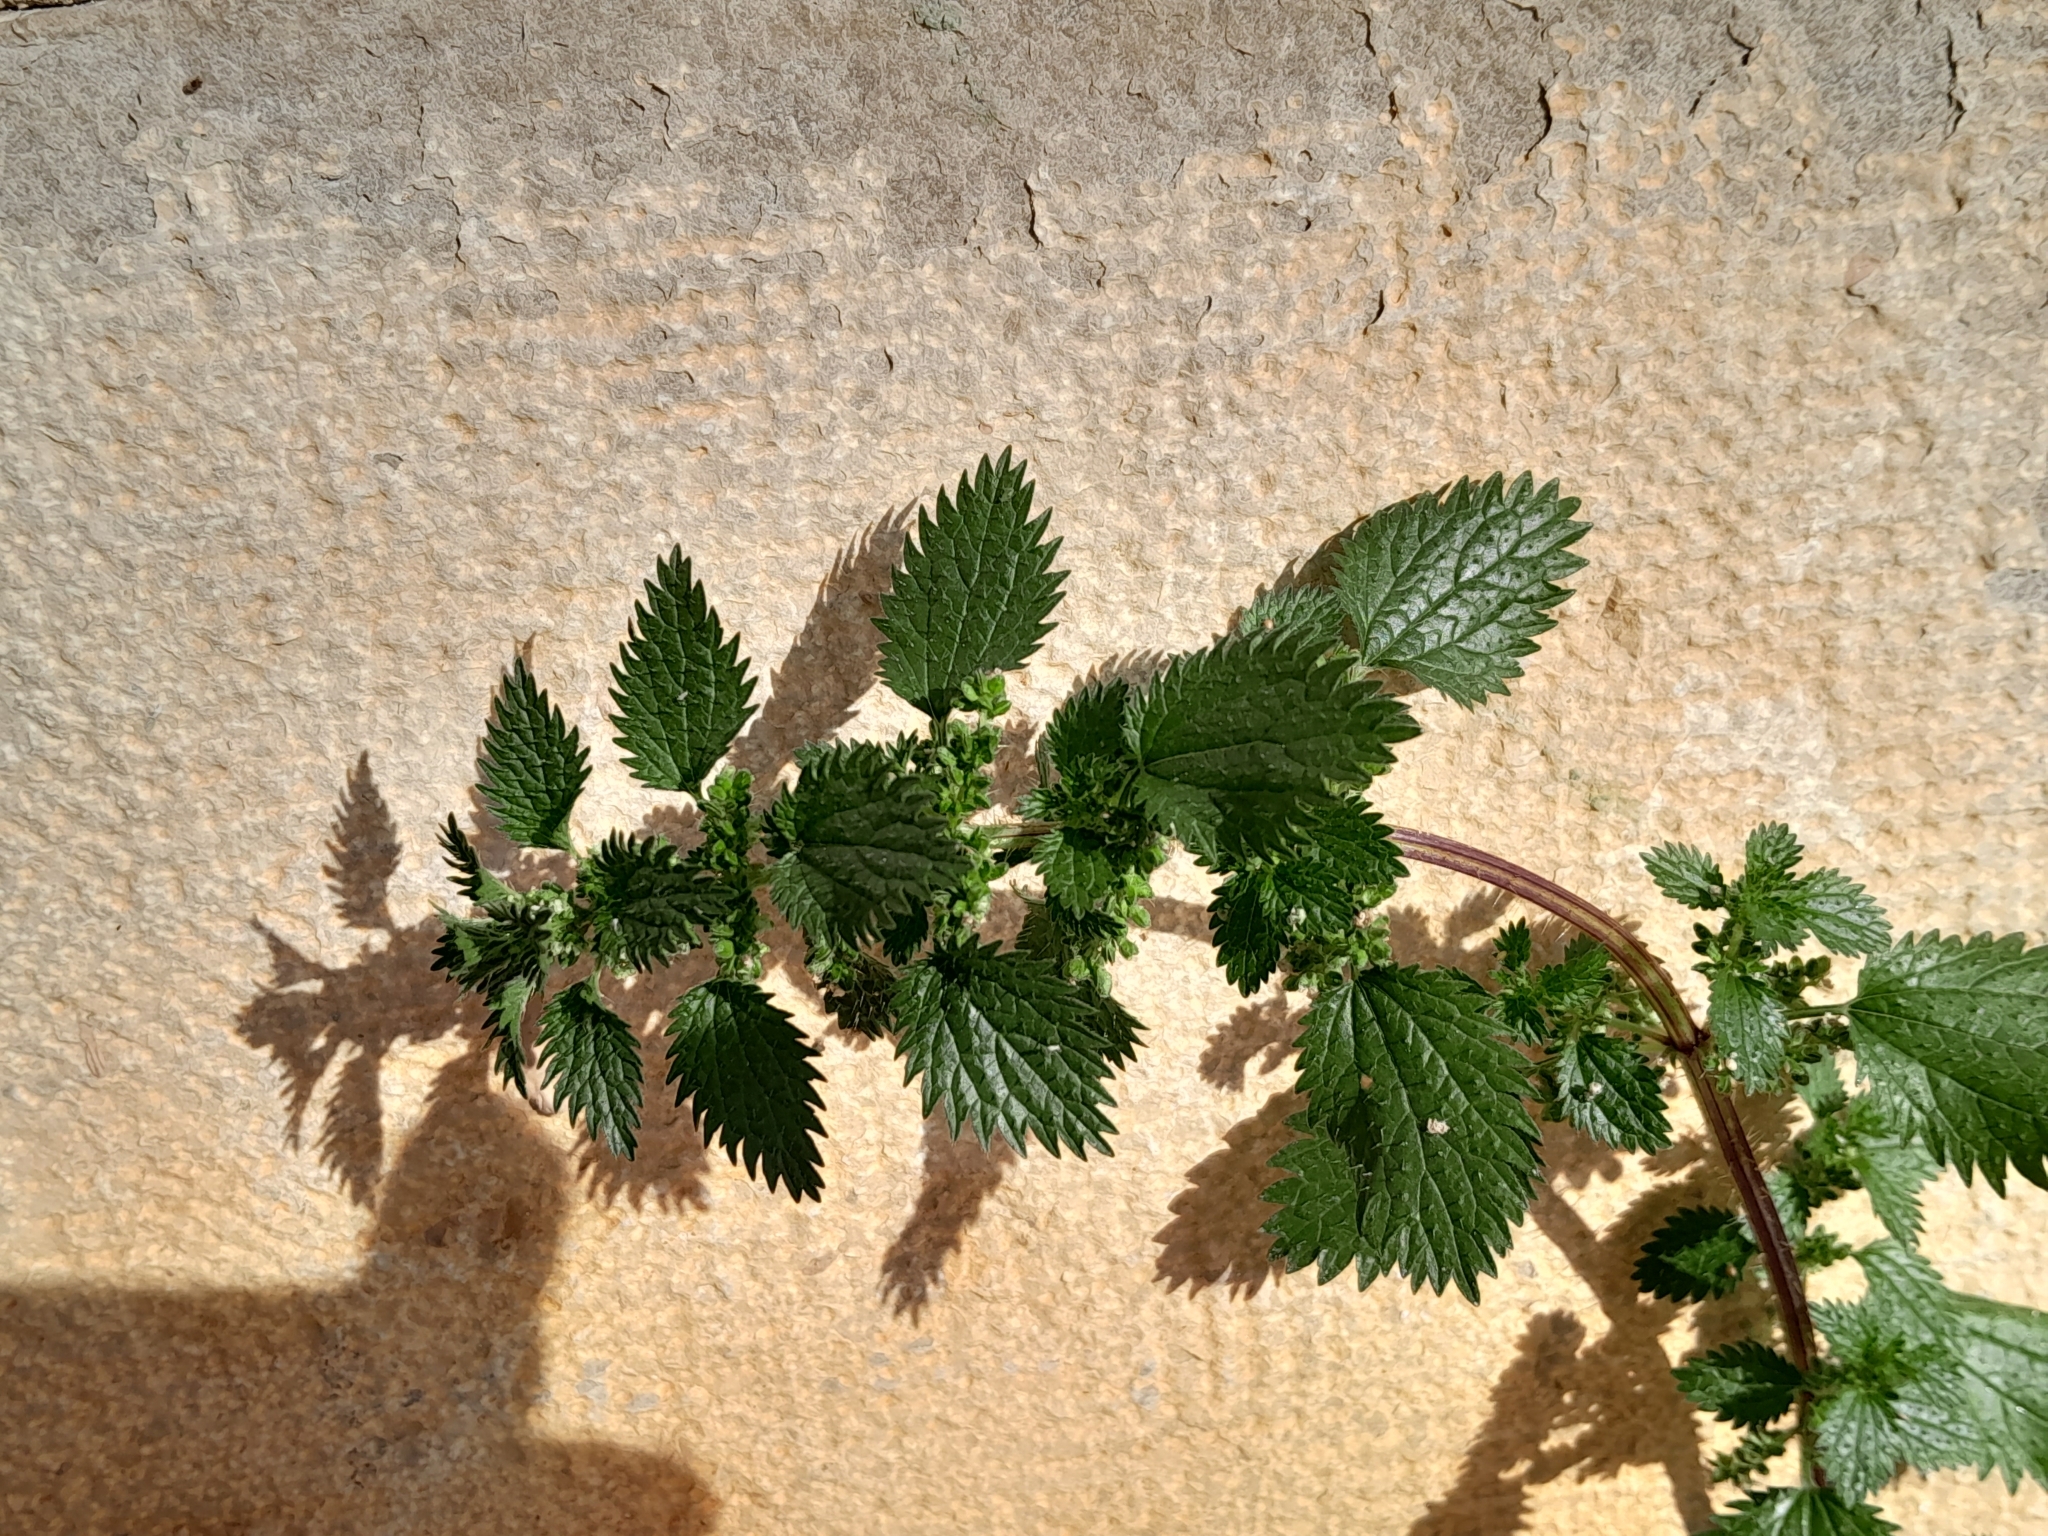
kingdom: Plantae
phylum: Tracheophyta
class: Magnoliopsida
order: Rosales
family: Urticaceae
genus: Urtica
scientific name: Urtica urens
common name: Dwarf nettle
